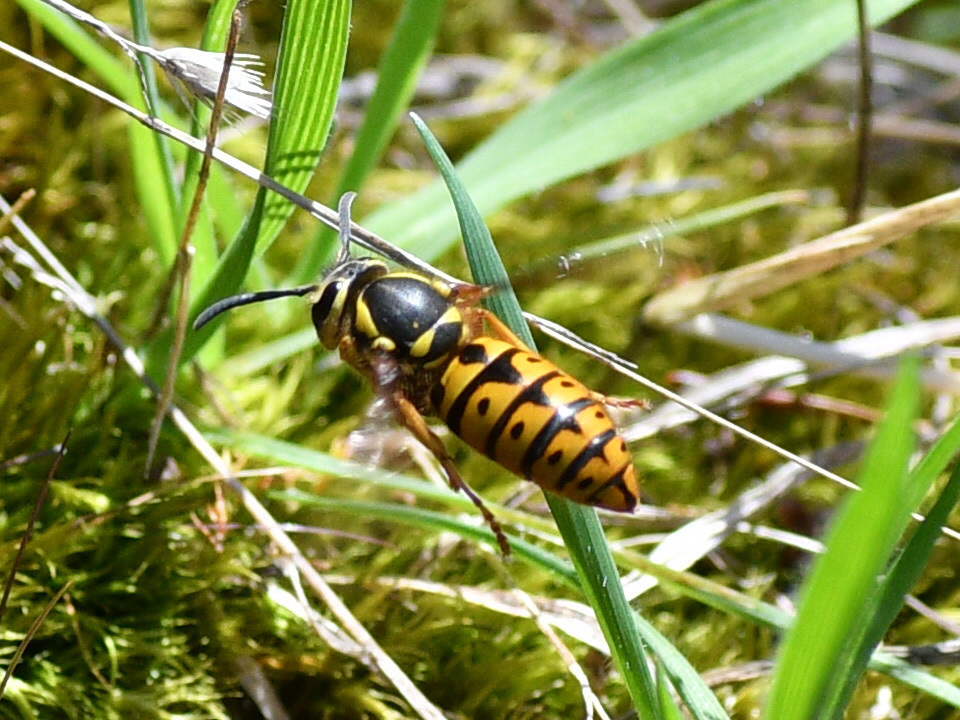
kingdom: Animalia
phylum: Arthropoda
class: Insecta
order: Hymenoptera
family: Vespidae
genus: Vespula
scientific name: Vespula pensylvanica
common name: Western yellowjacket
